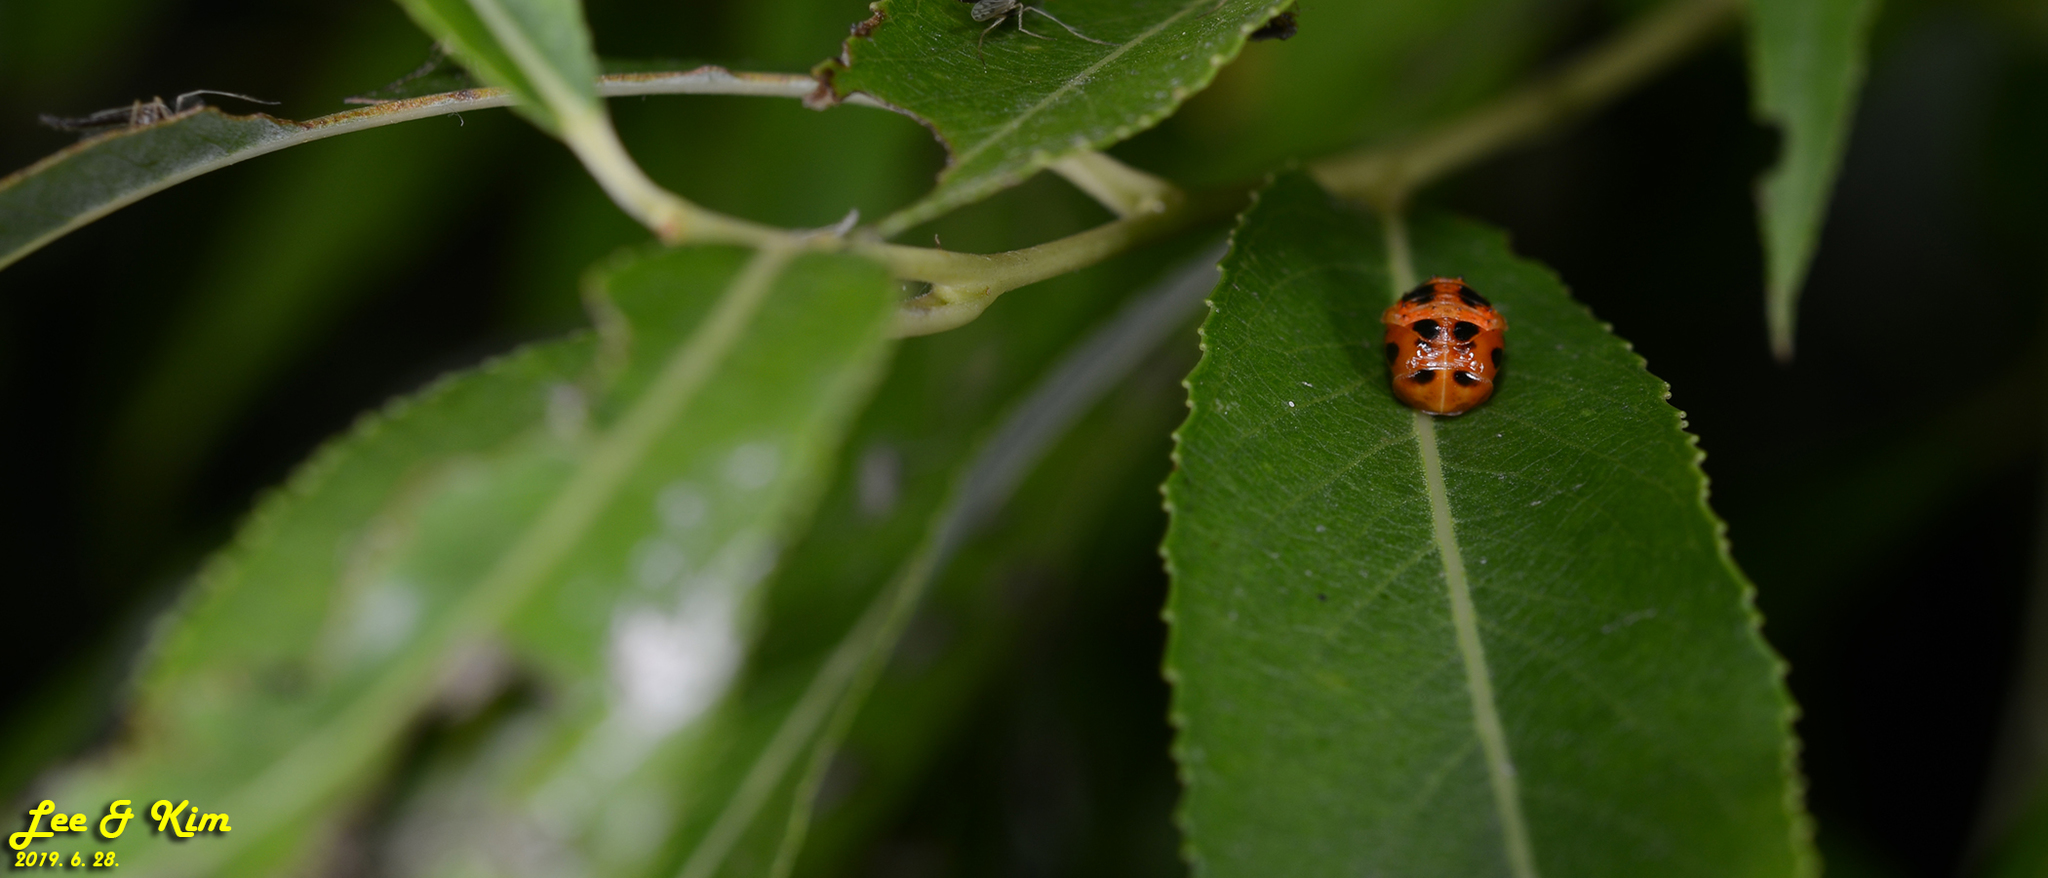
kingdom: Animalia
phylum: Arthropoda
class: Insecta
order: Coleoptera
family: Coccinellidae
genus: Harmonia
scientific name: Harmonia axyridis
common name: Harlequin ladybird
